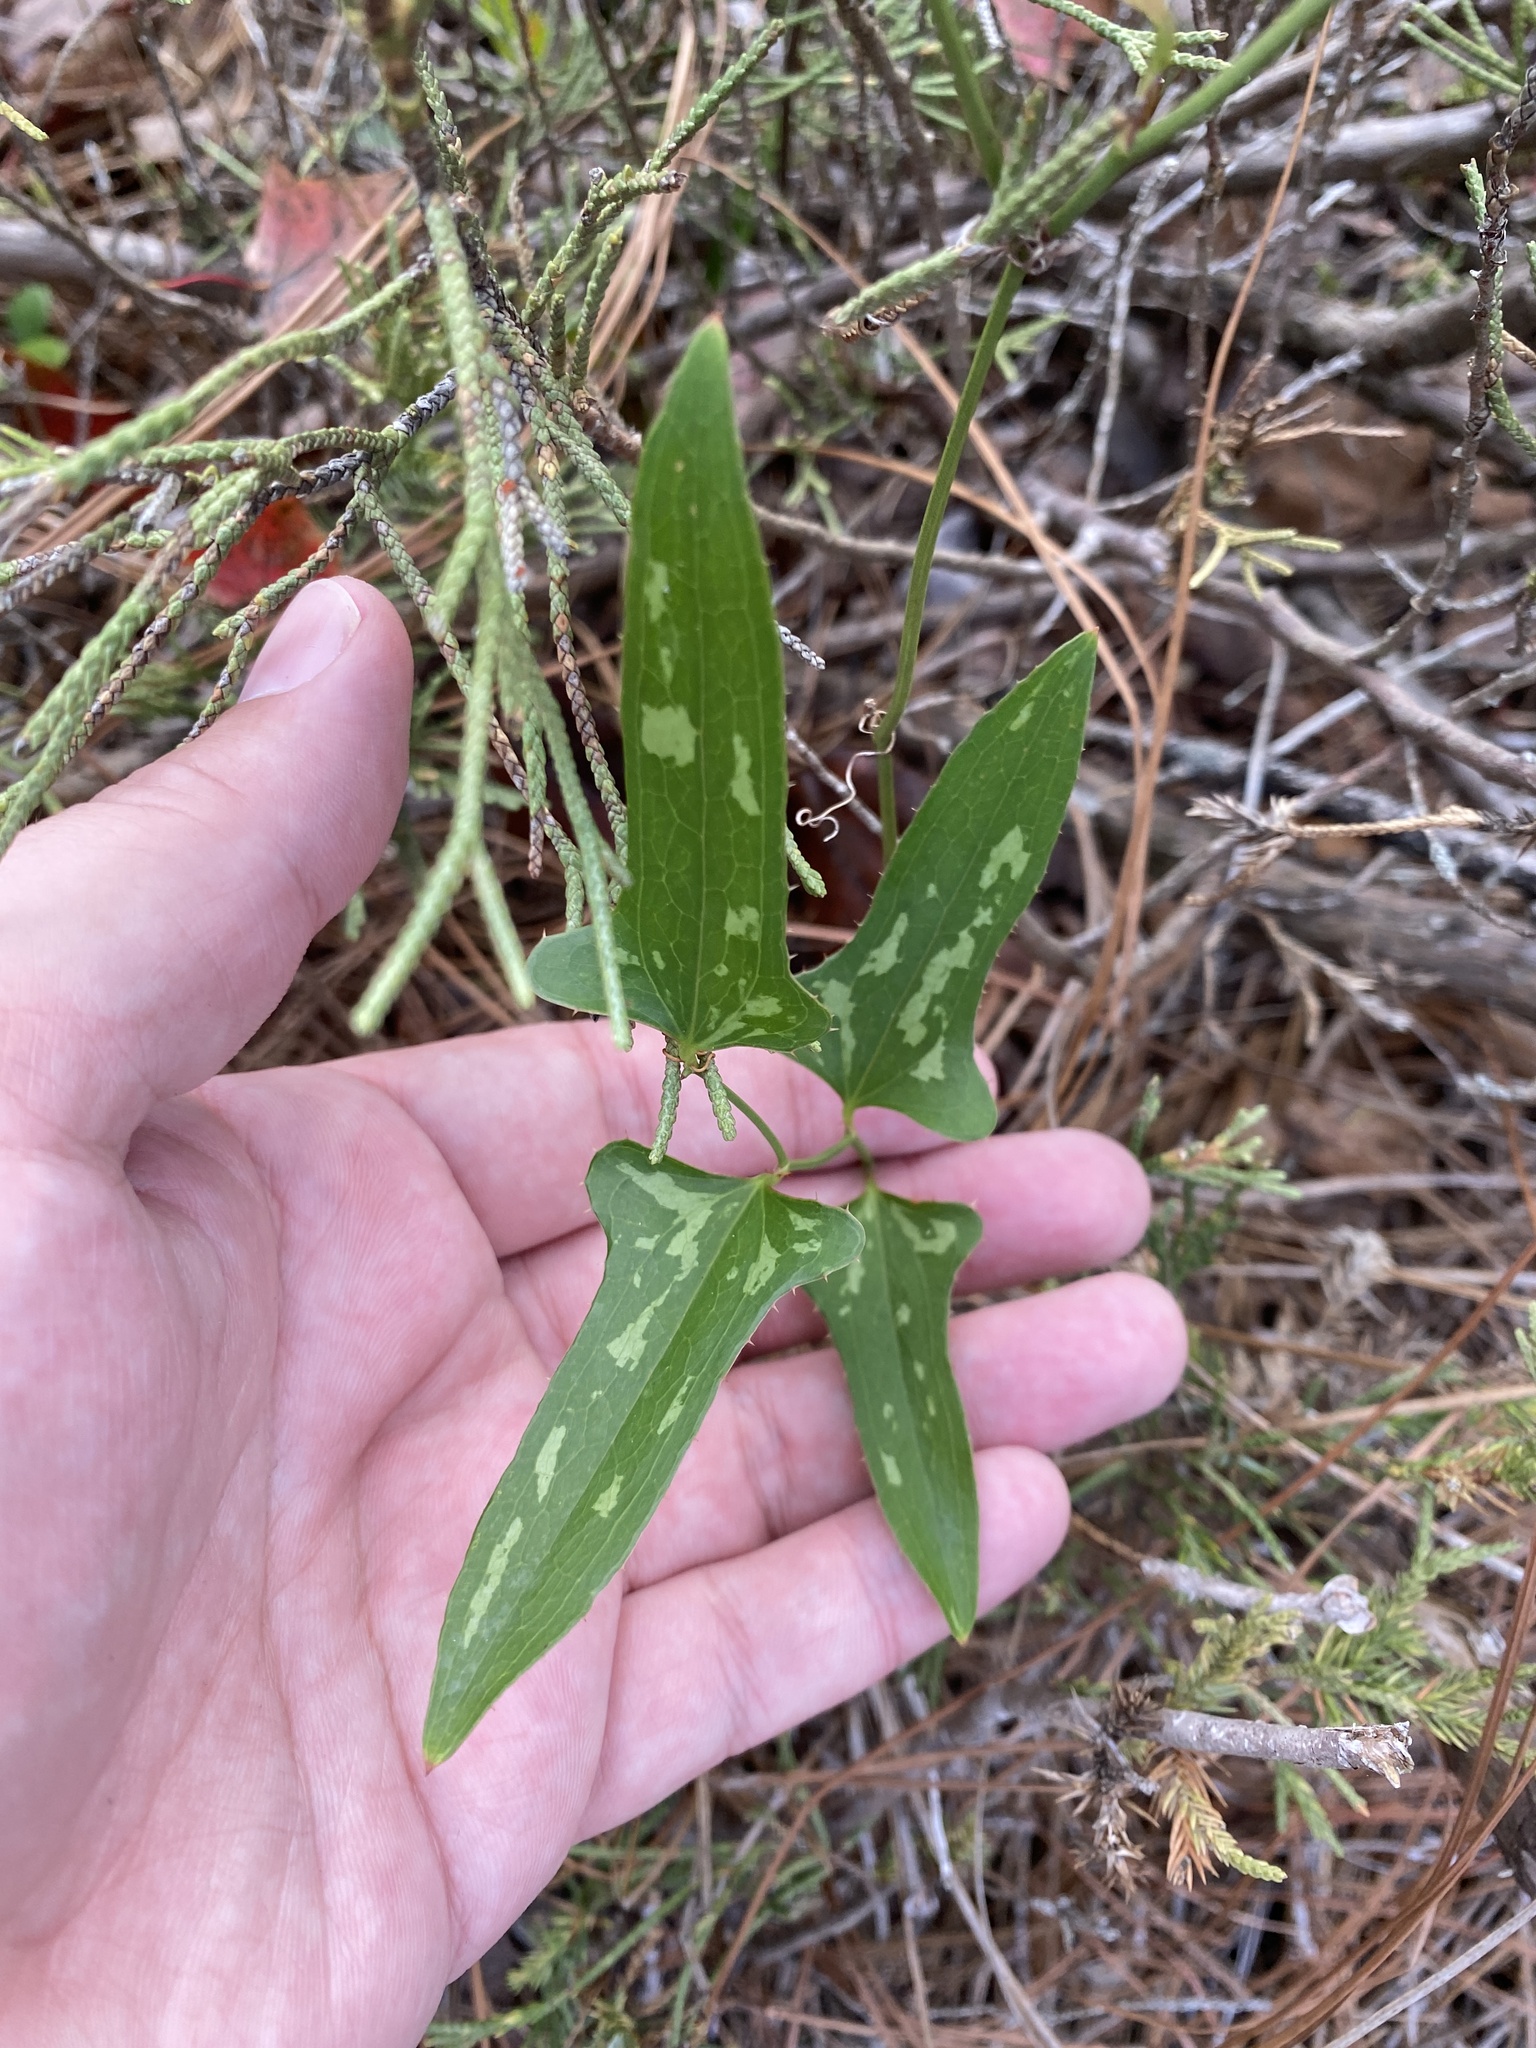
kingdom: Plantae
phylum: Tracheophyta
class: Liliopsida
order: Liliales
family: Smilacaceae
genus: Smilax
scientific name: Smilax bona-nox
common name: Catbrier
